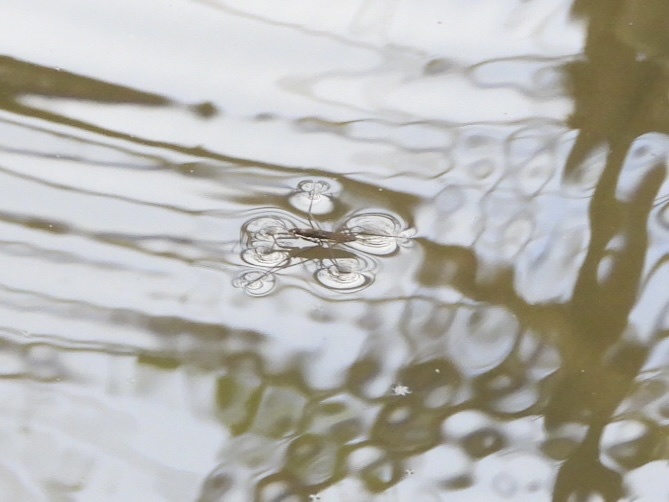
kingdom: Animalia
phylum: Arthropoda
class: Insecta
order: Hemiptera
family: Gerridae
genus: Aquarius
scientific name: Aquarius remigis
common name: Common water strider
